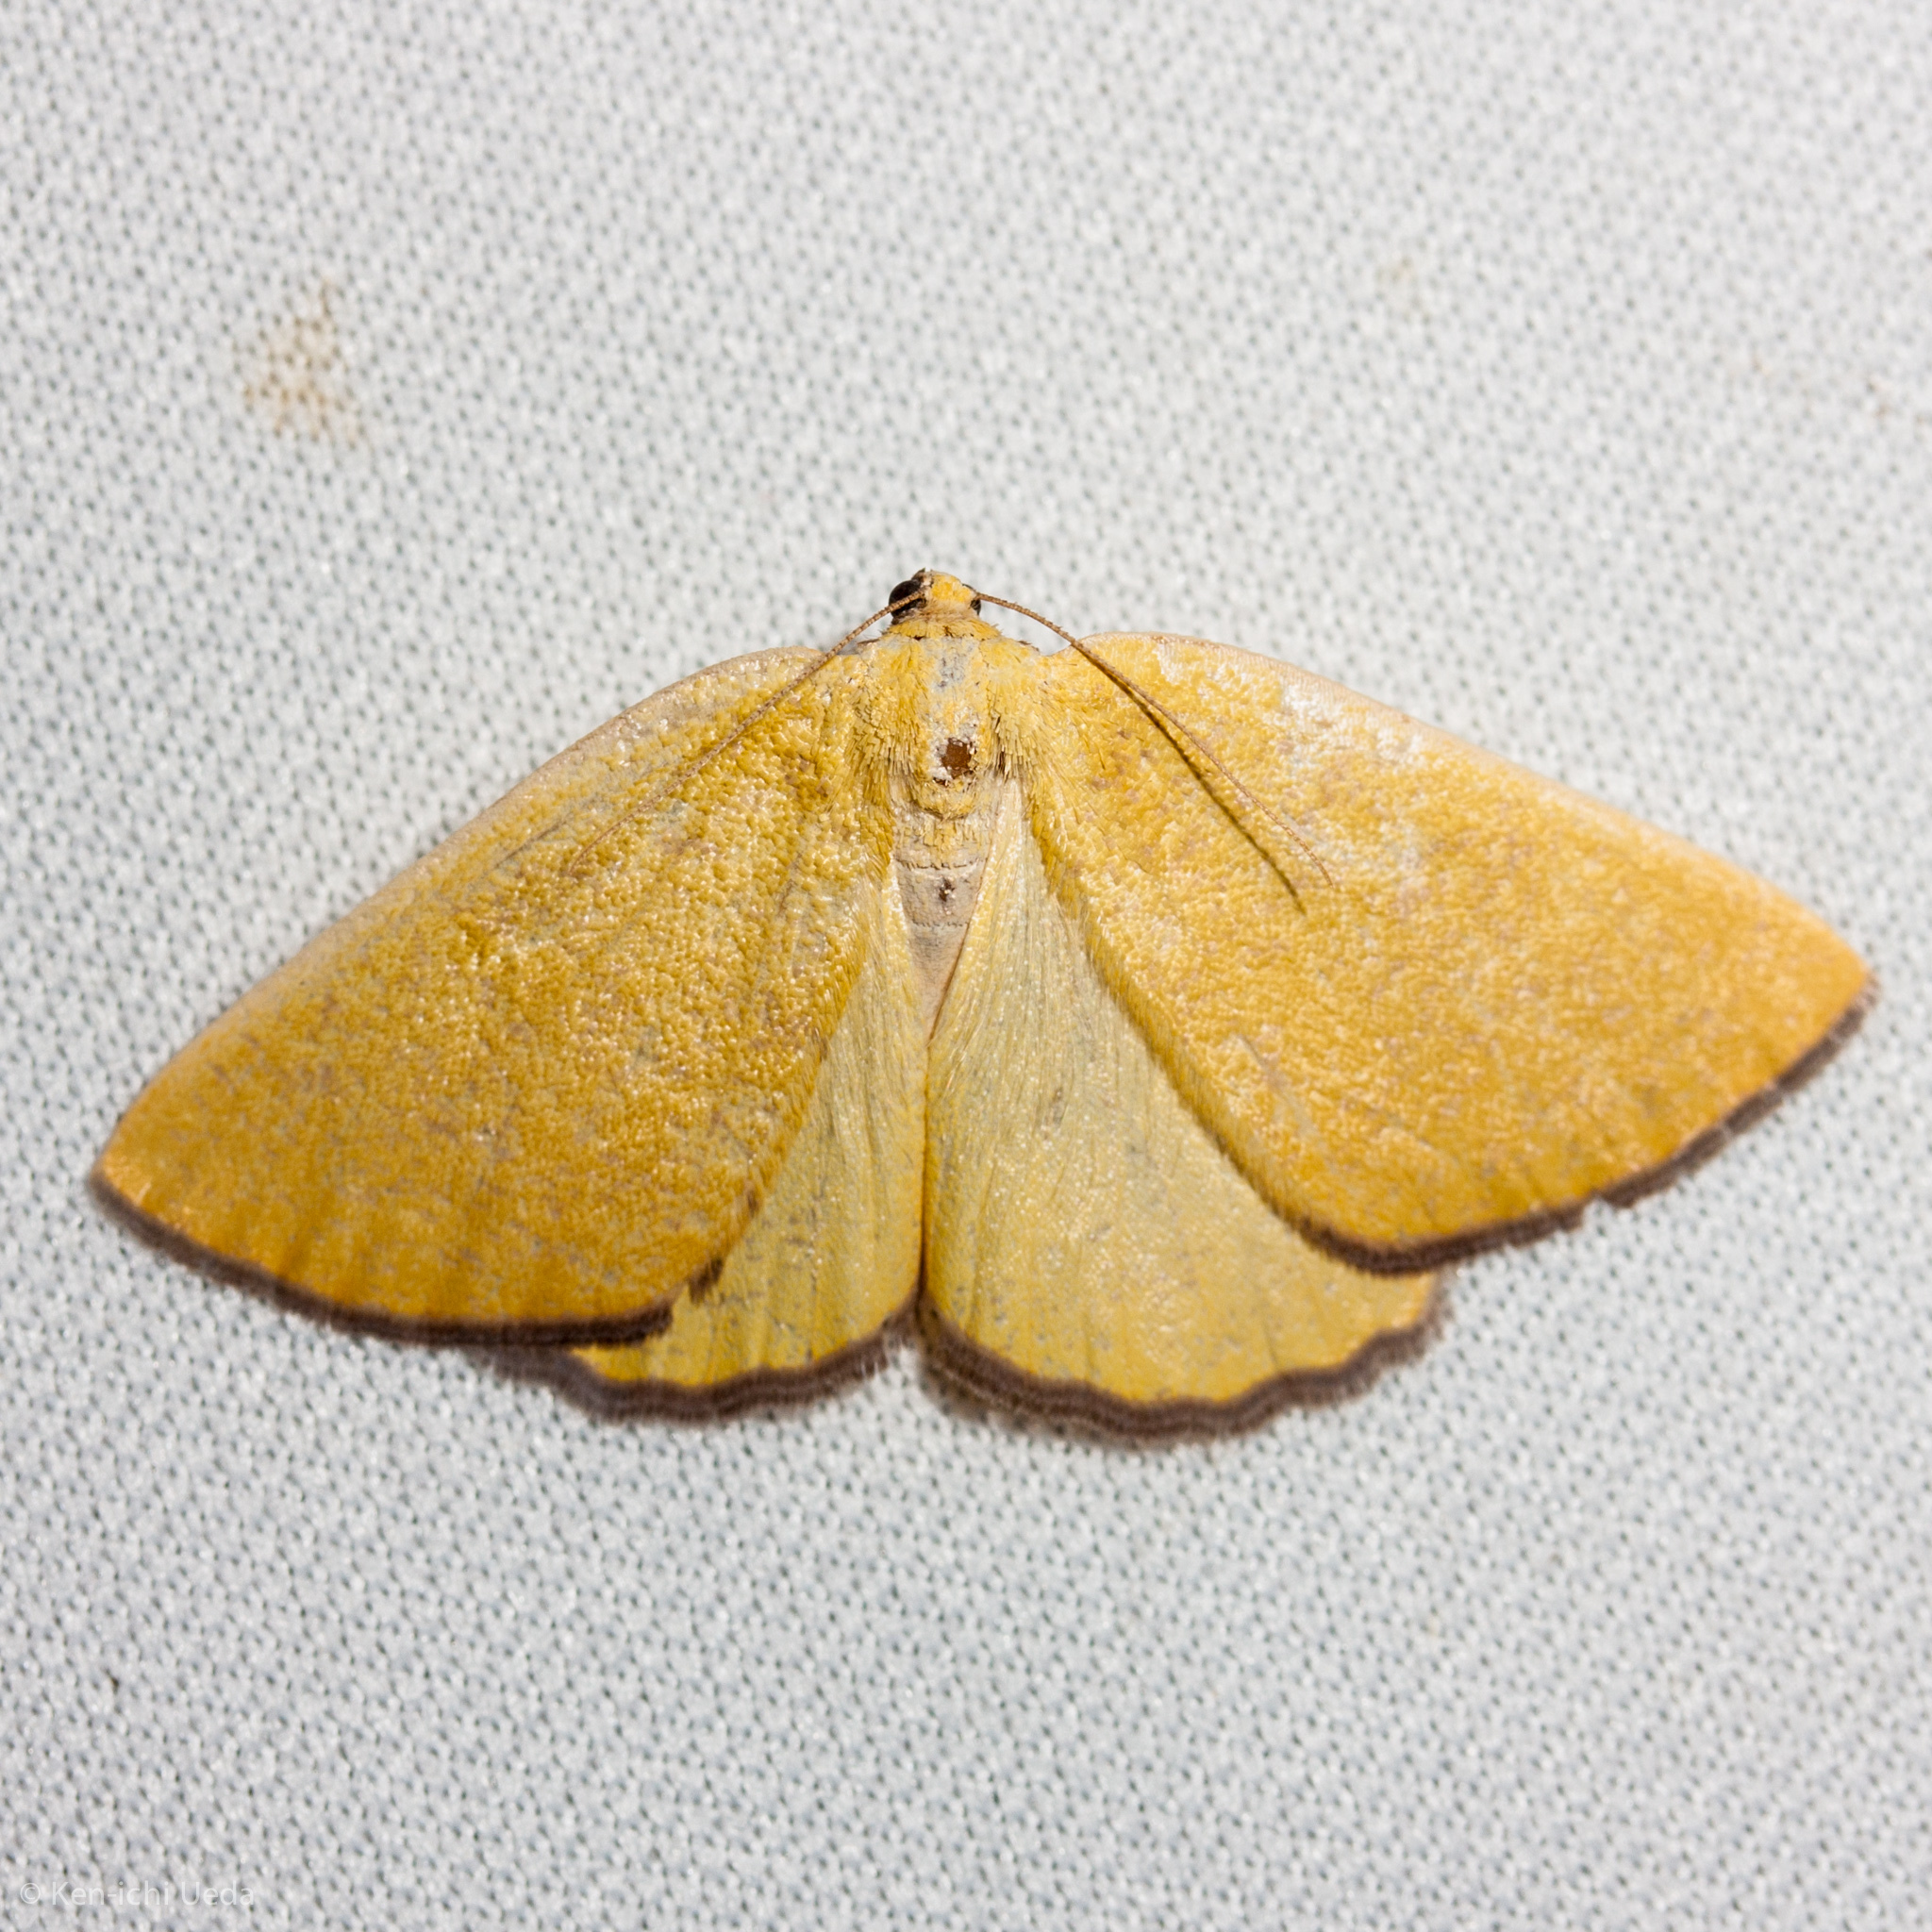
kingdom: Animalia
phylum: Arthropoda
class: Insecta
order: Lepidoptera
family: Geometridae
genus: Hesperumia
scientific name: Hesperumia fumosaria
